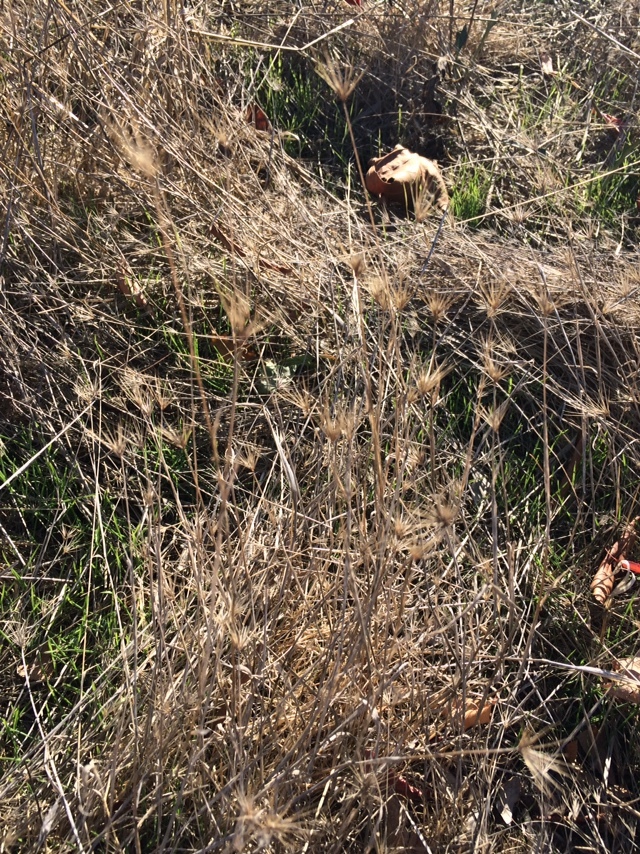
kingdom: Plantae
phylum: Tracheophyta
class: Liliopsida
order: Poales
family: Poaceae
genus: Taeniatherum
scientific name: Taeniatherum caput-medusae
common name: Medusahead
